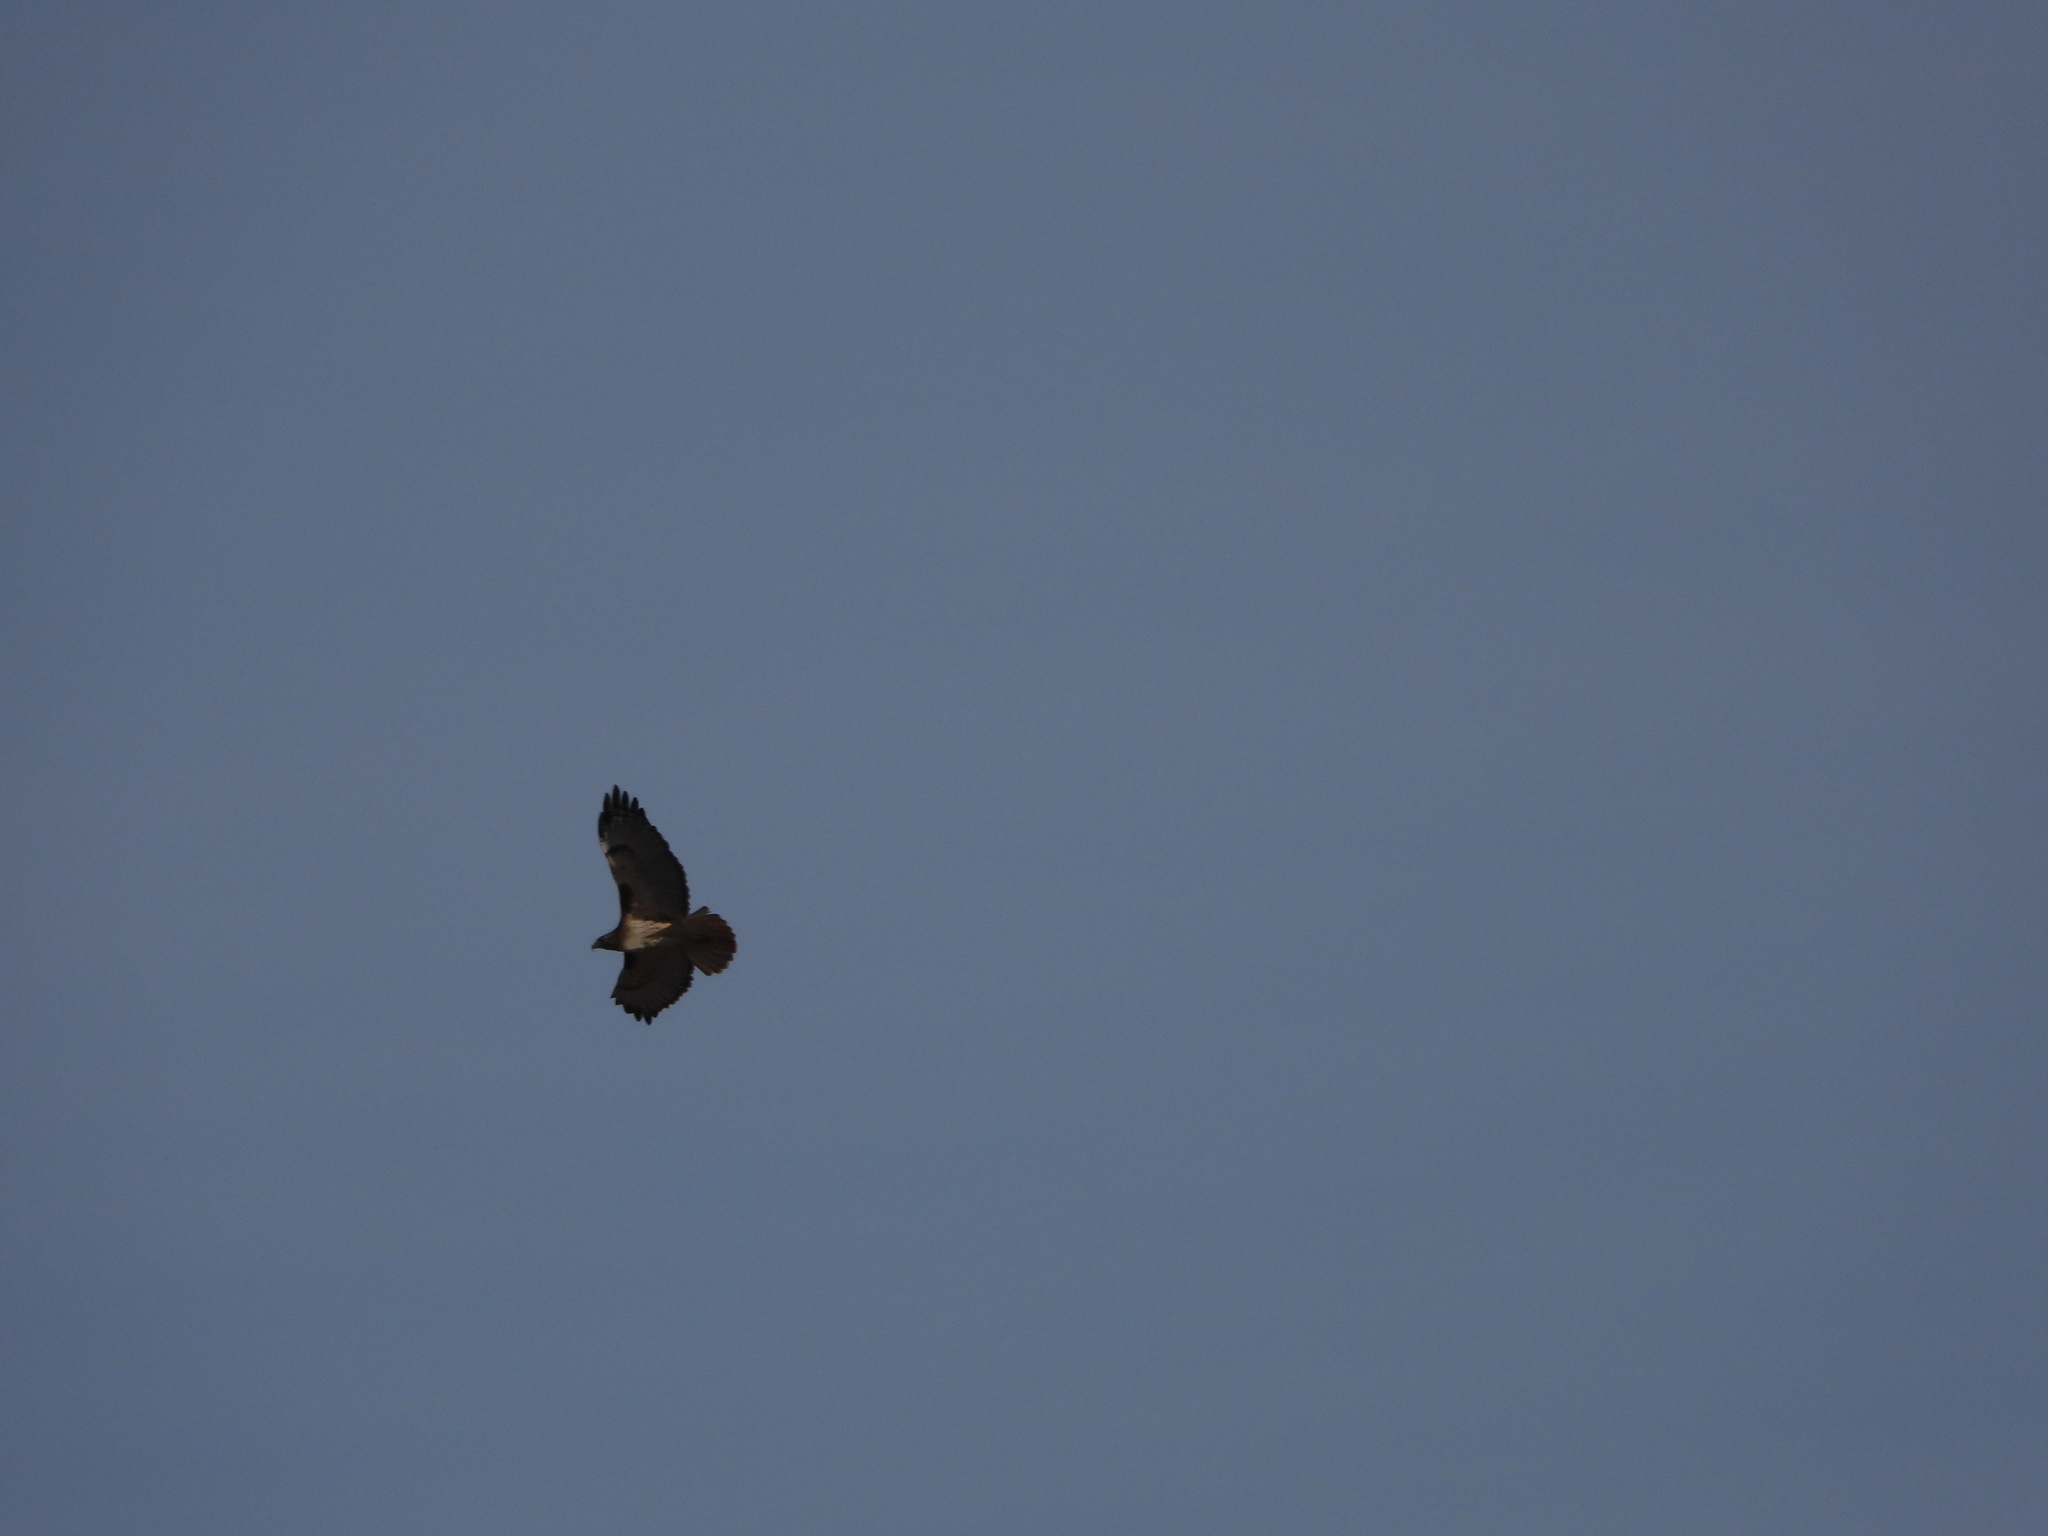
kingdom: Animalia
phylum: Chordata
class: Aves
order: Accipitriformes
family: Accipitridae
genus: Buteo
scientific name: Buteo jamaicensis
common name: Red-tailed hawk
